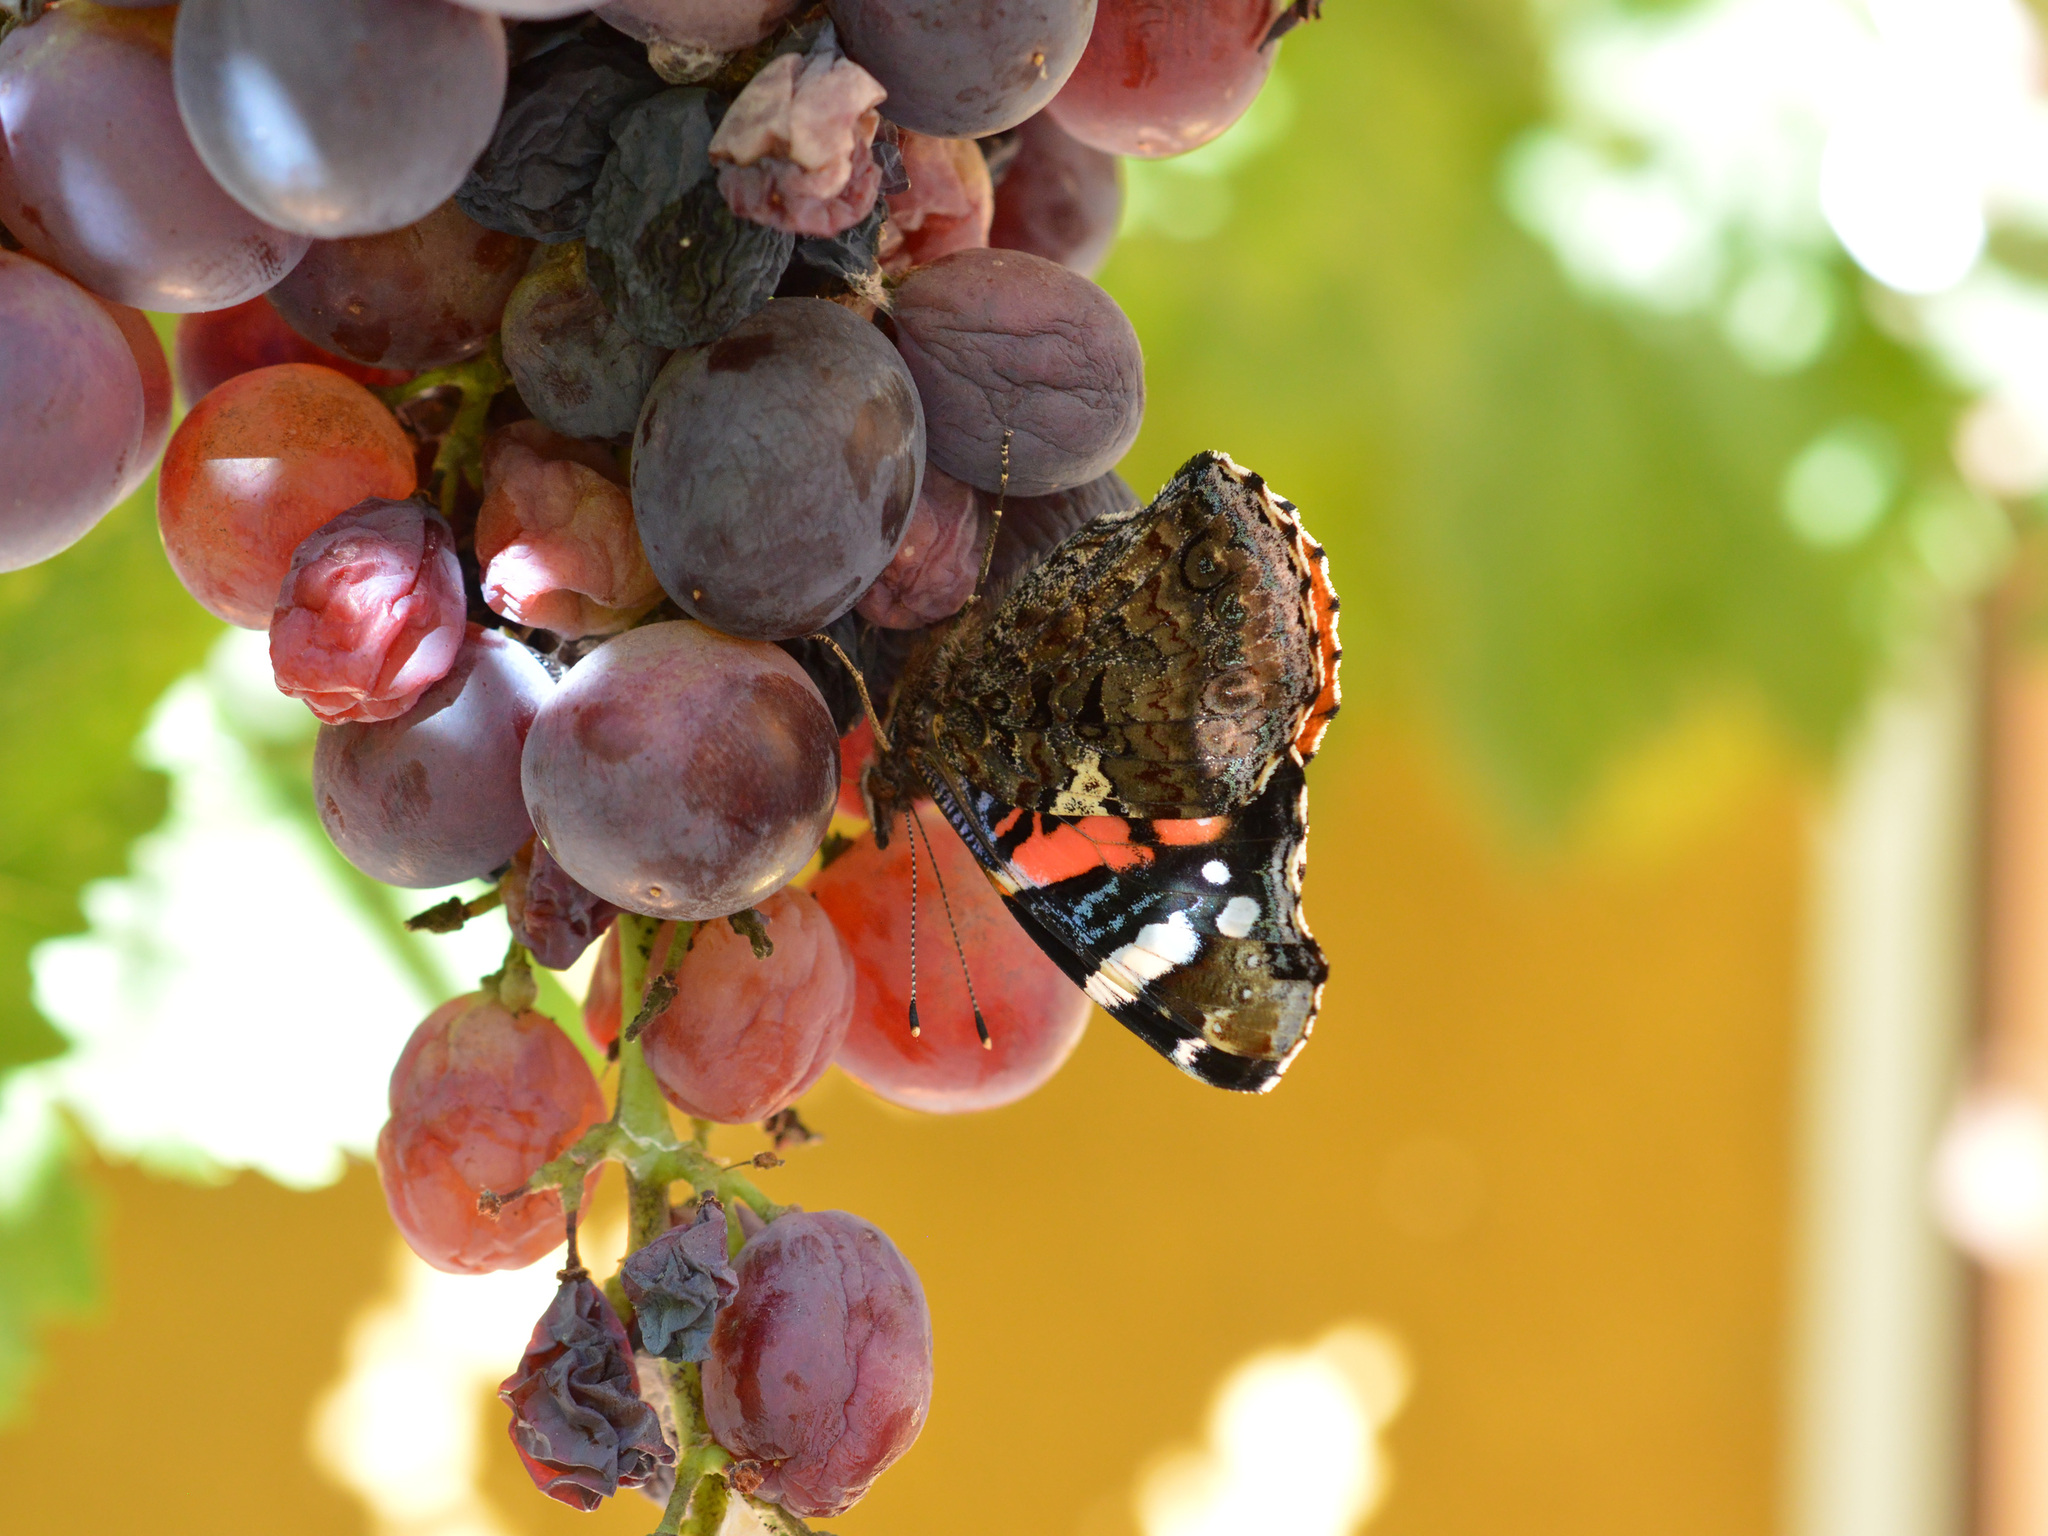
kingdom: Animalia
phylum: Arthropoda
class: Insecta
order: Lepidoptera
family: Nymphalidae
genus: Vanessa
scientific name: Vanessa atalanta
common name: Red admiral
